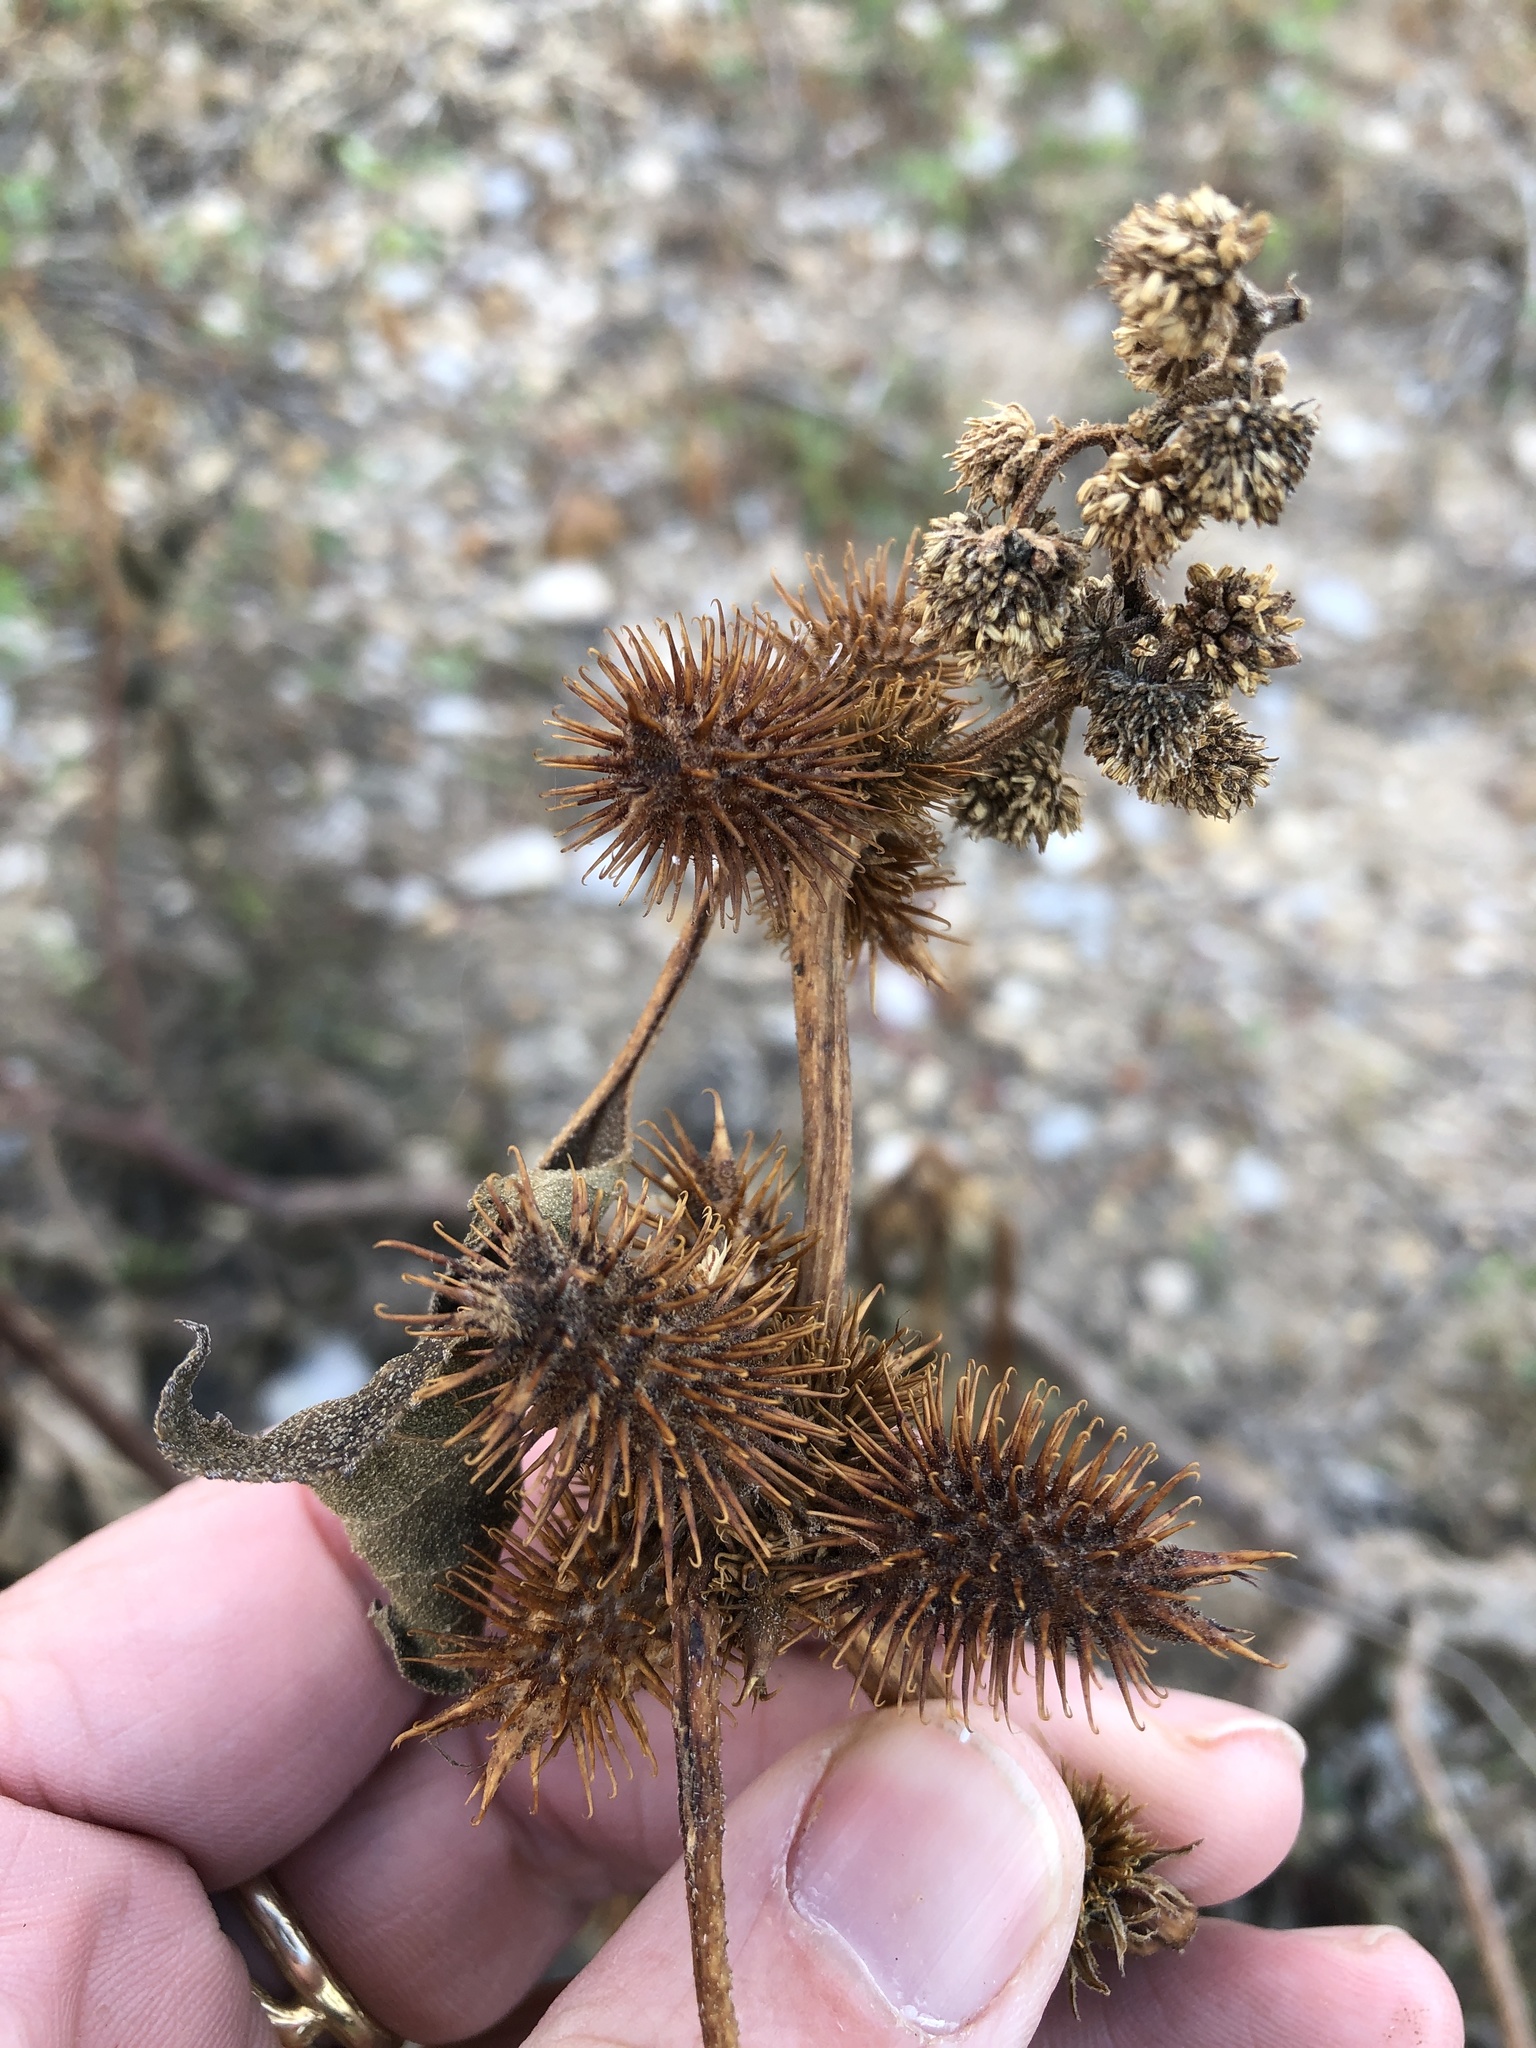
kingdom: Plantae
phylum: Tracheophyta
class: Magnoliopsida
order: Asterales
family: Asteraceae
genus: Xanthium
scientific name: Xanthium strumarium
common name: Rough cocklebur
